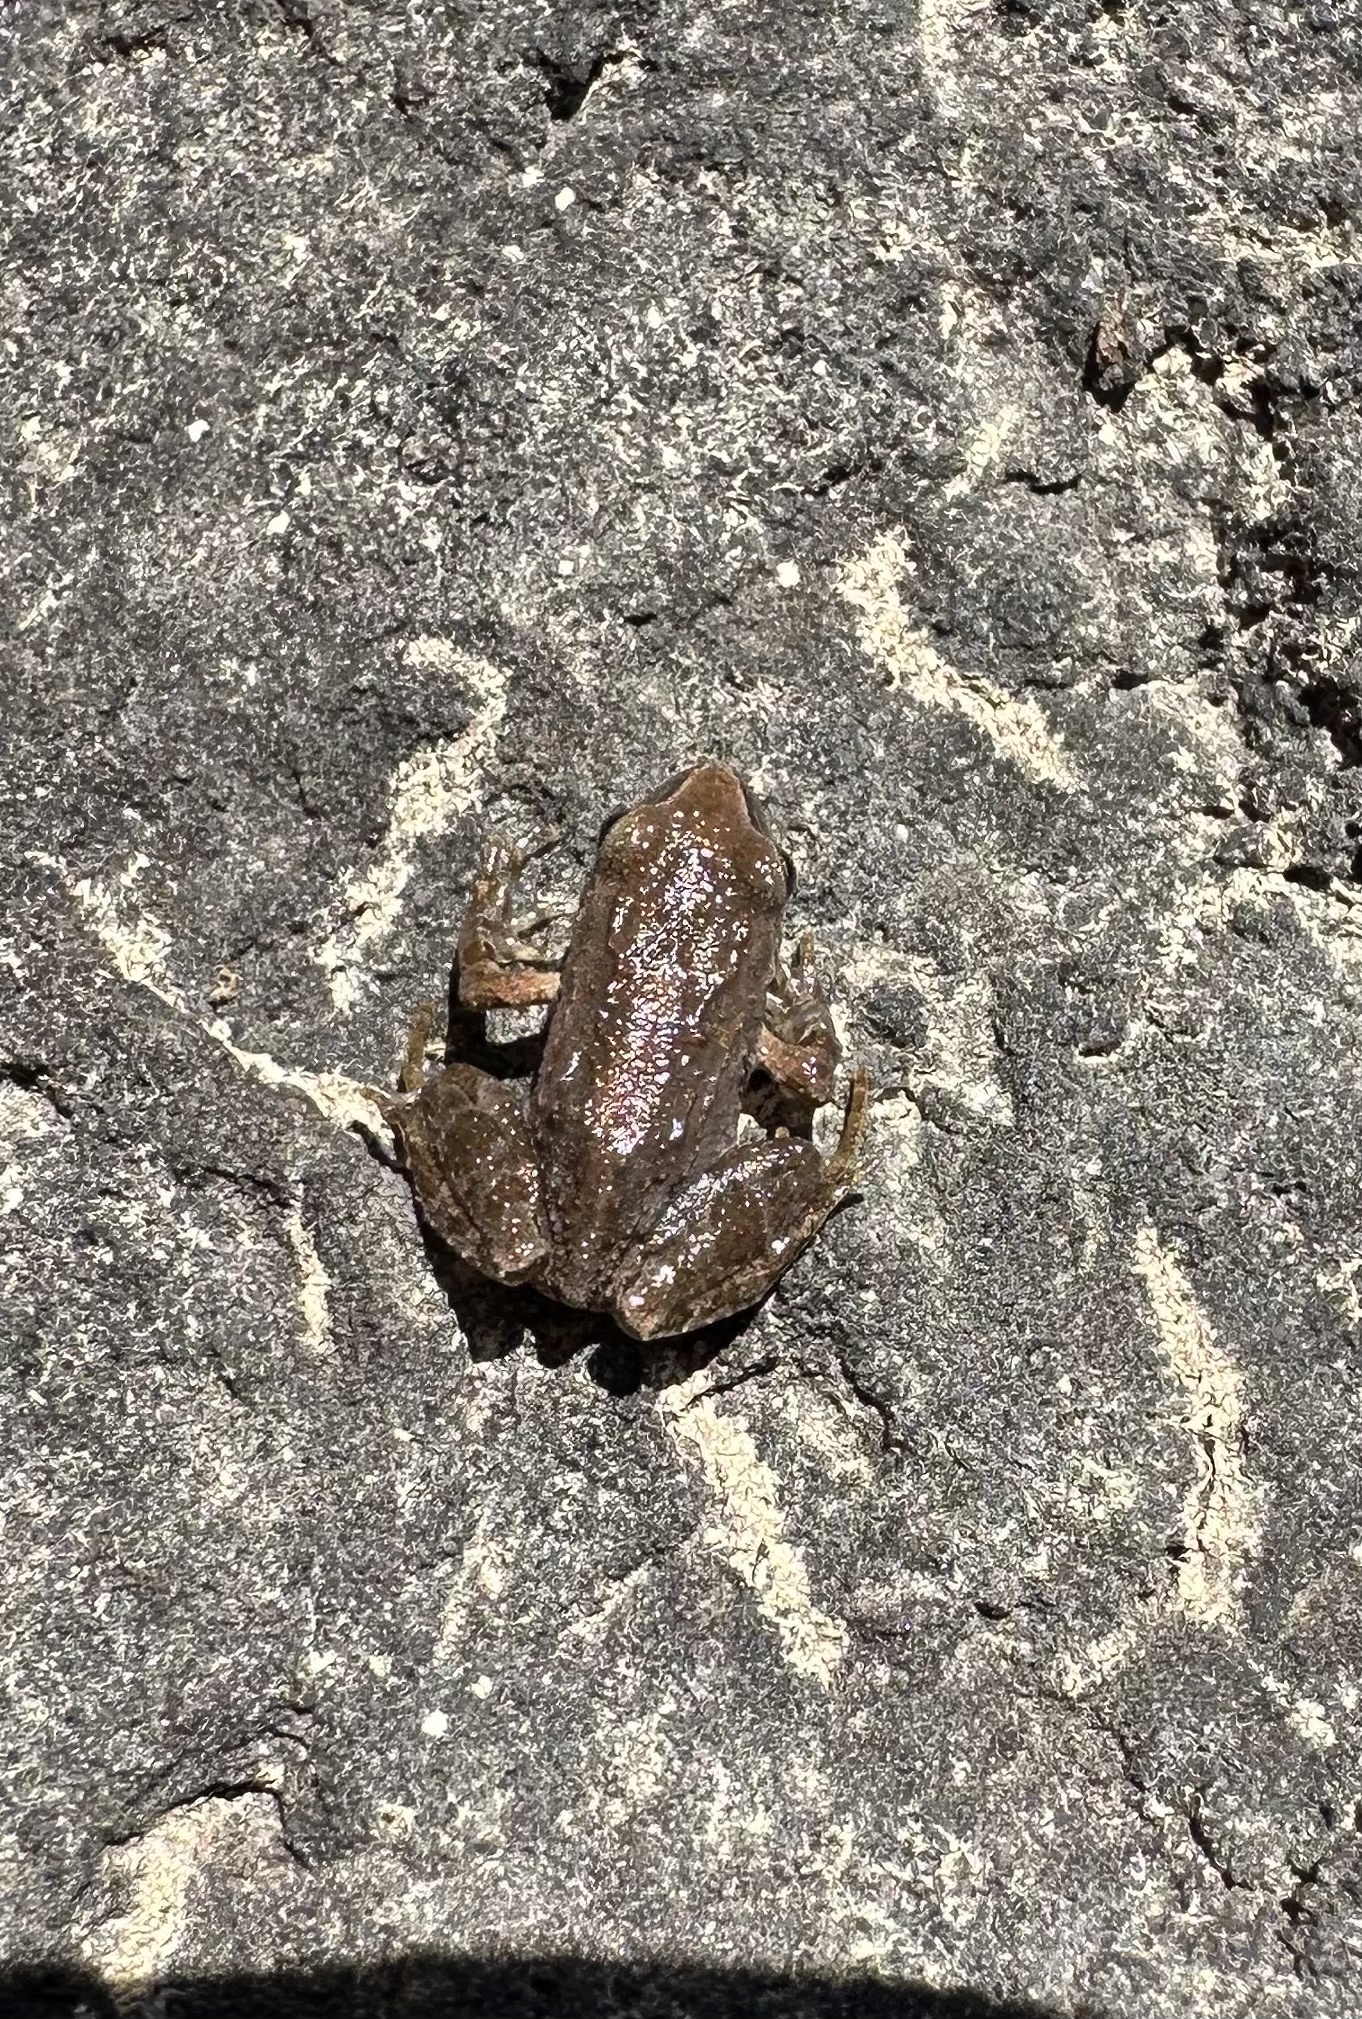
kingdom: Animalia
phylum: Chordata
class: Amphibia
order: Anura
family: Batrachylidae
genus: Batrachyla
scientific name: Batrachyla taeniata
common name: Banded wood frog
